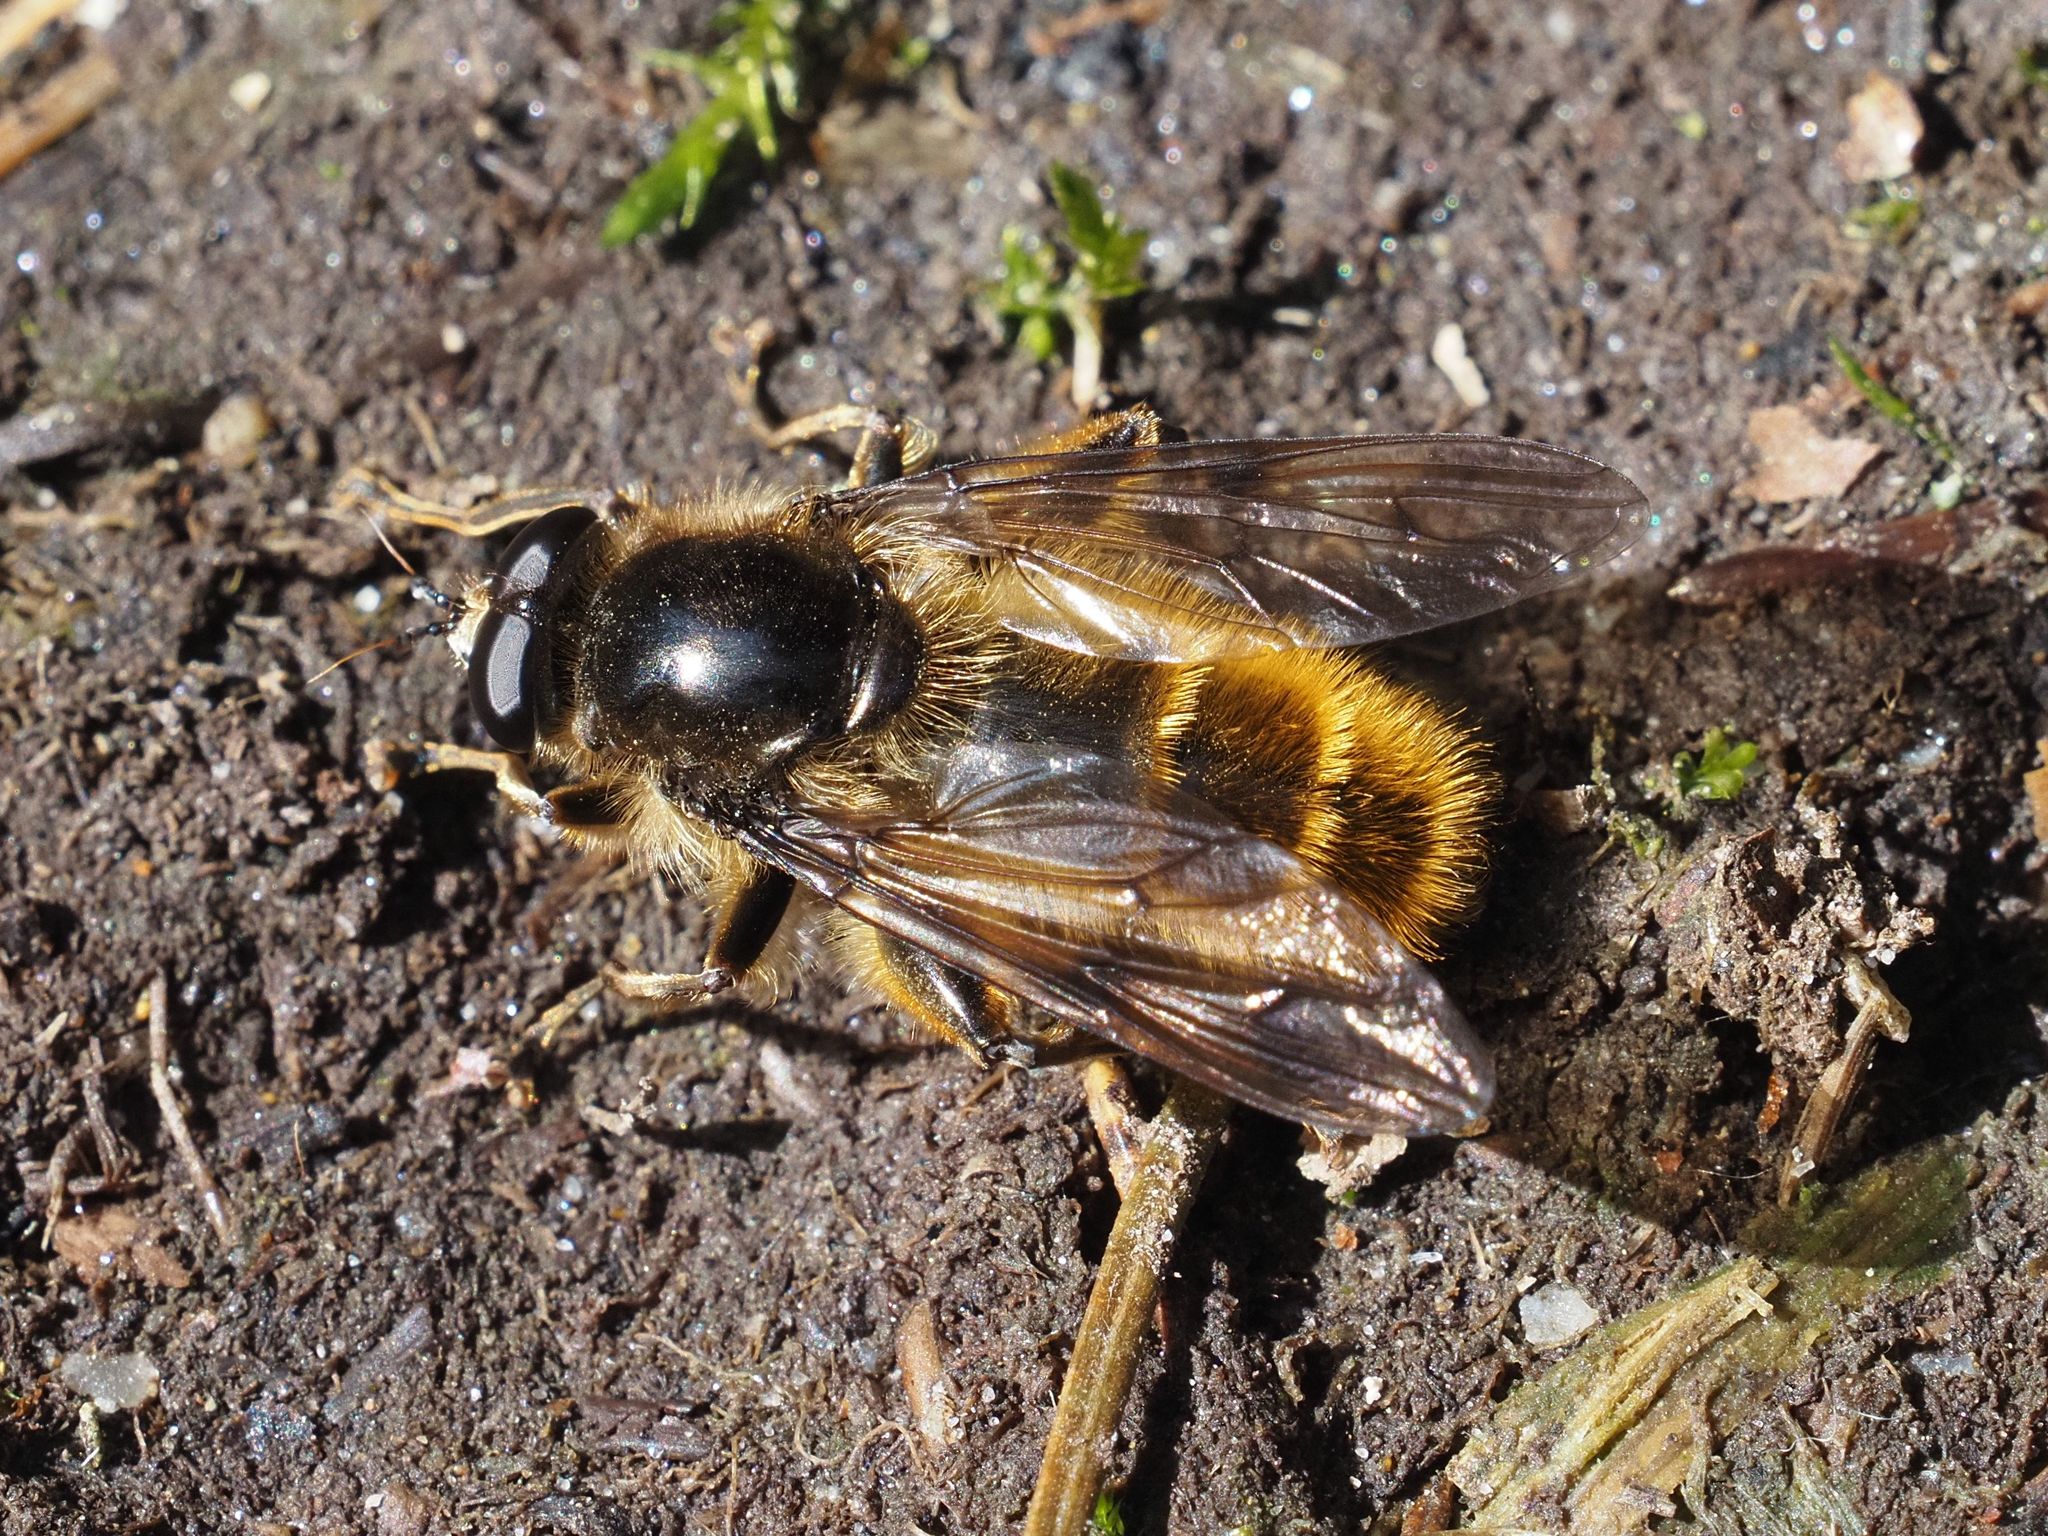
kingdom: Animalia
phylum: Arthropoda
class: Insecta
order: Diptera
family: Syrphidae
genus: Brachypalpus
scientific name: Brachypalpus chrysites
